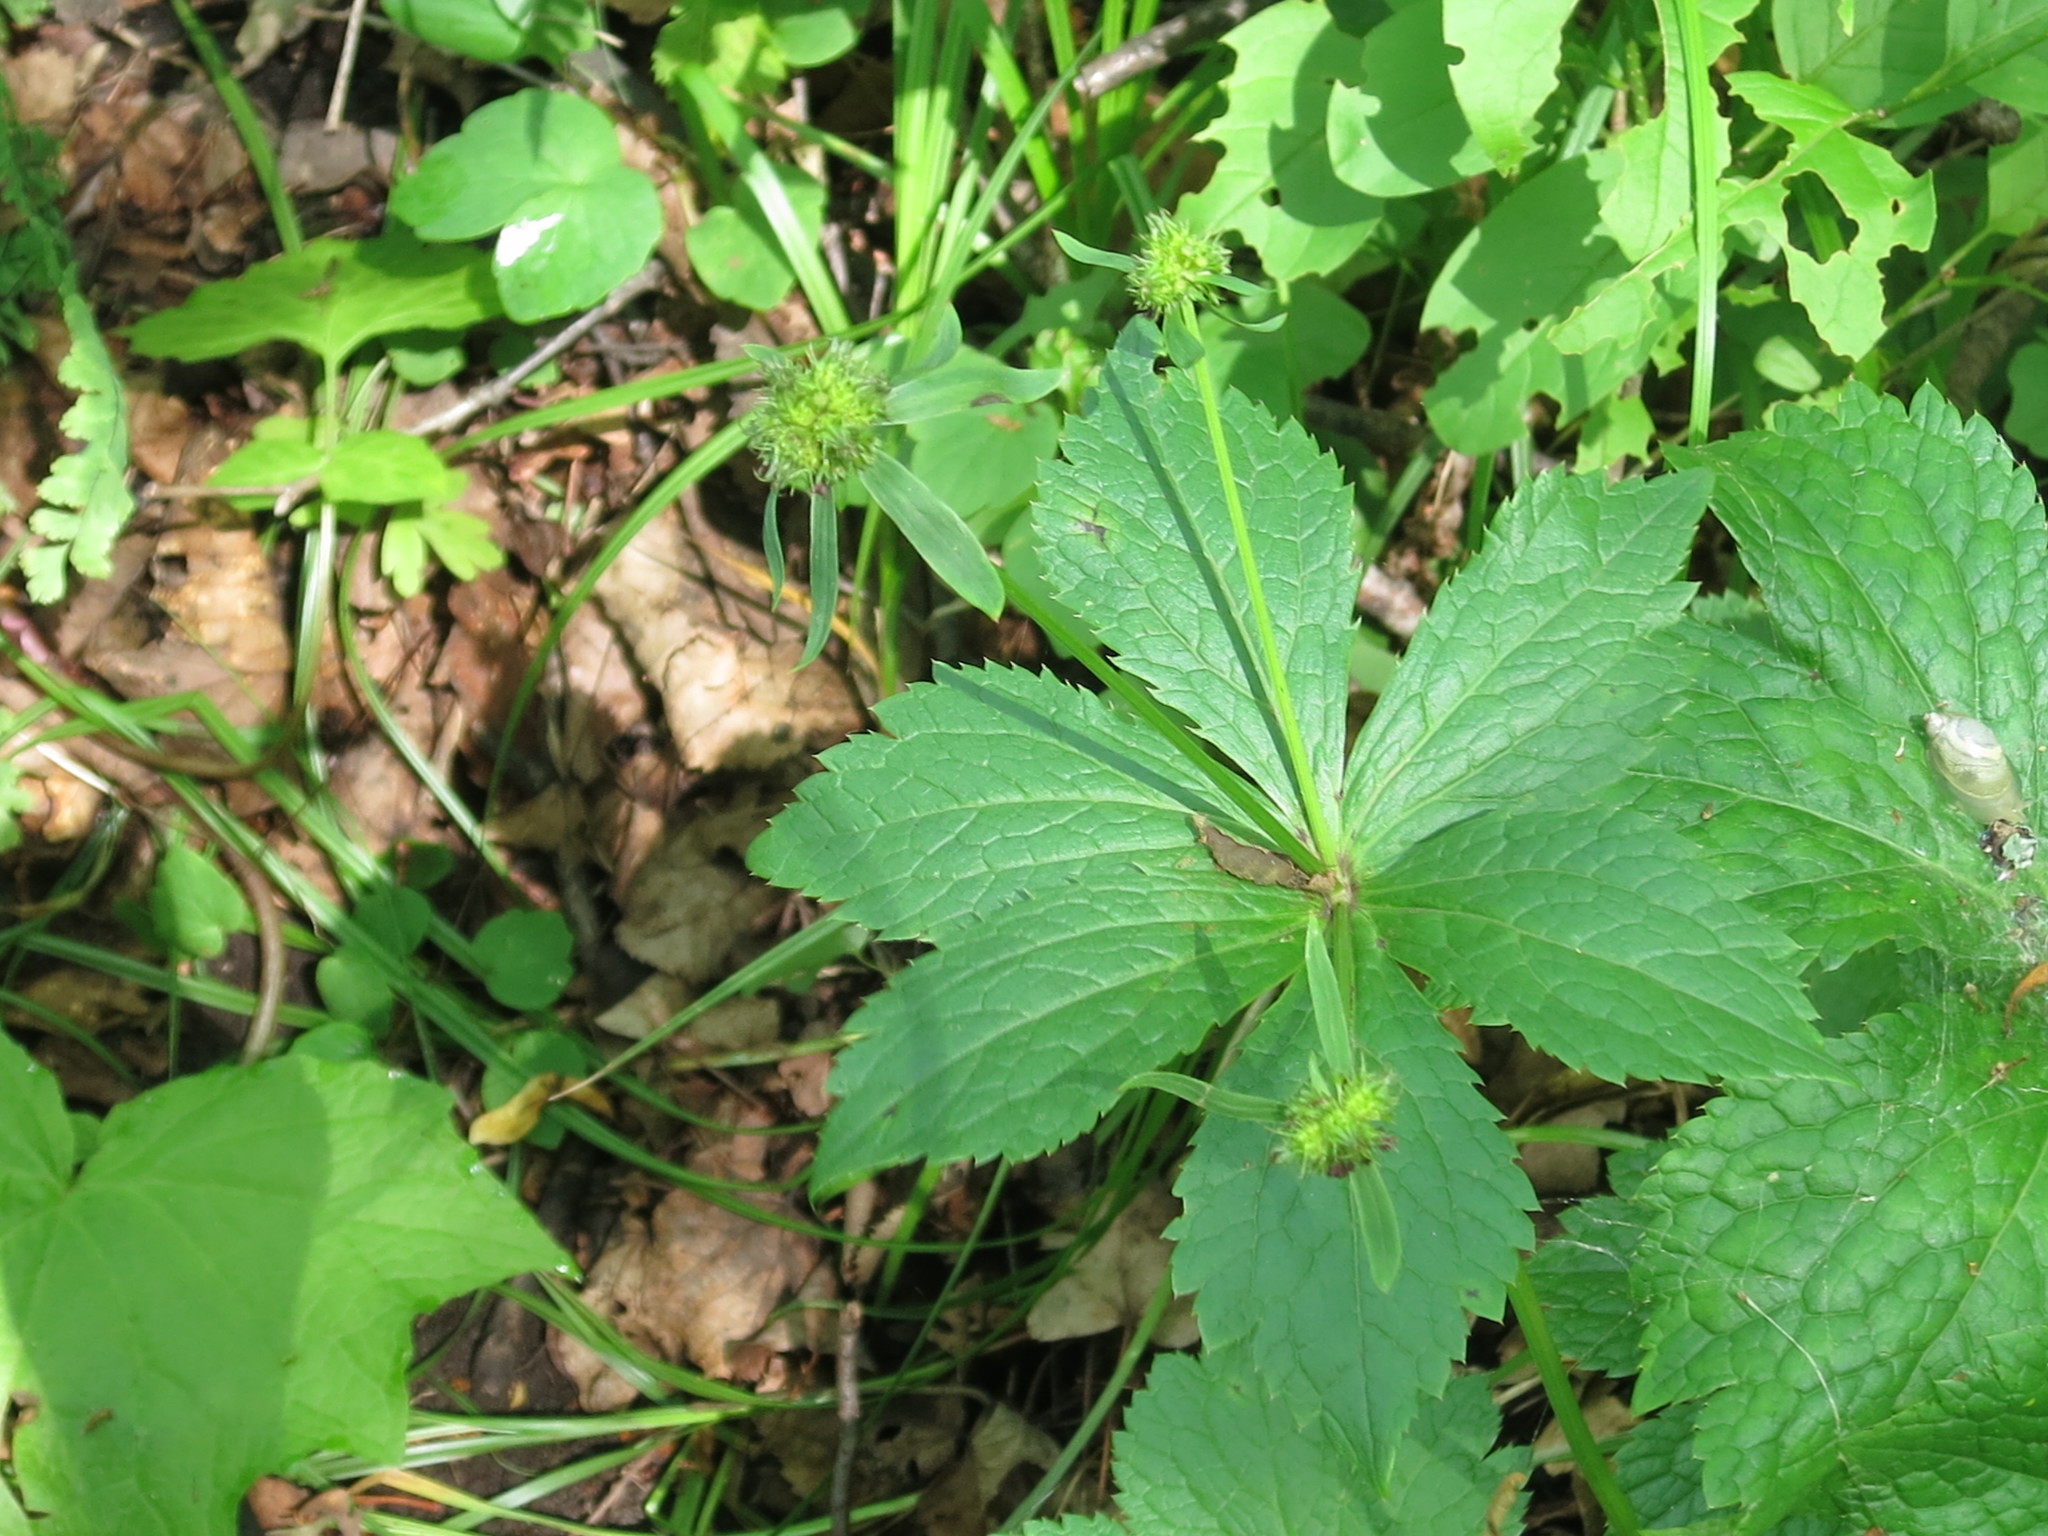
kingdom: Plantae
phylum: Tracheophyta
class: Magnoliopsida
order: Apiales
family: Apiaceae
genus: Sanicula
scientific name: Sanicula rubriflora
